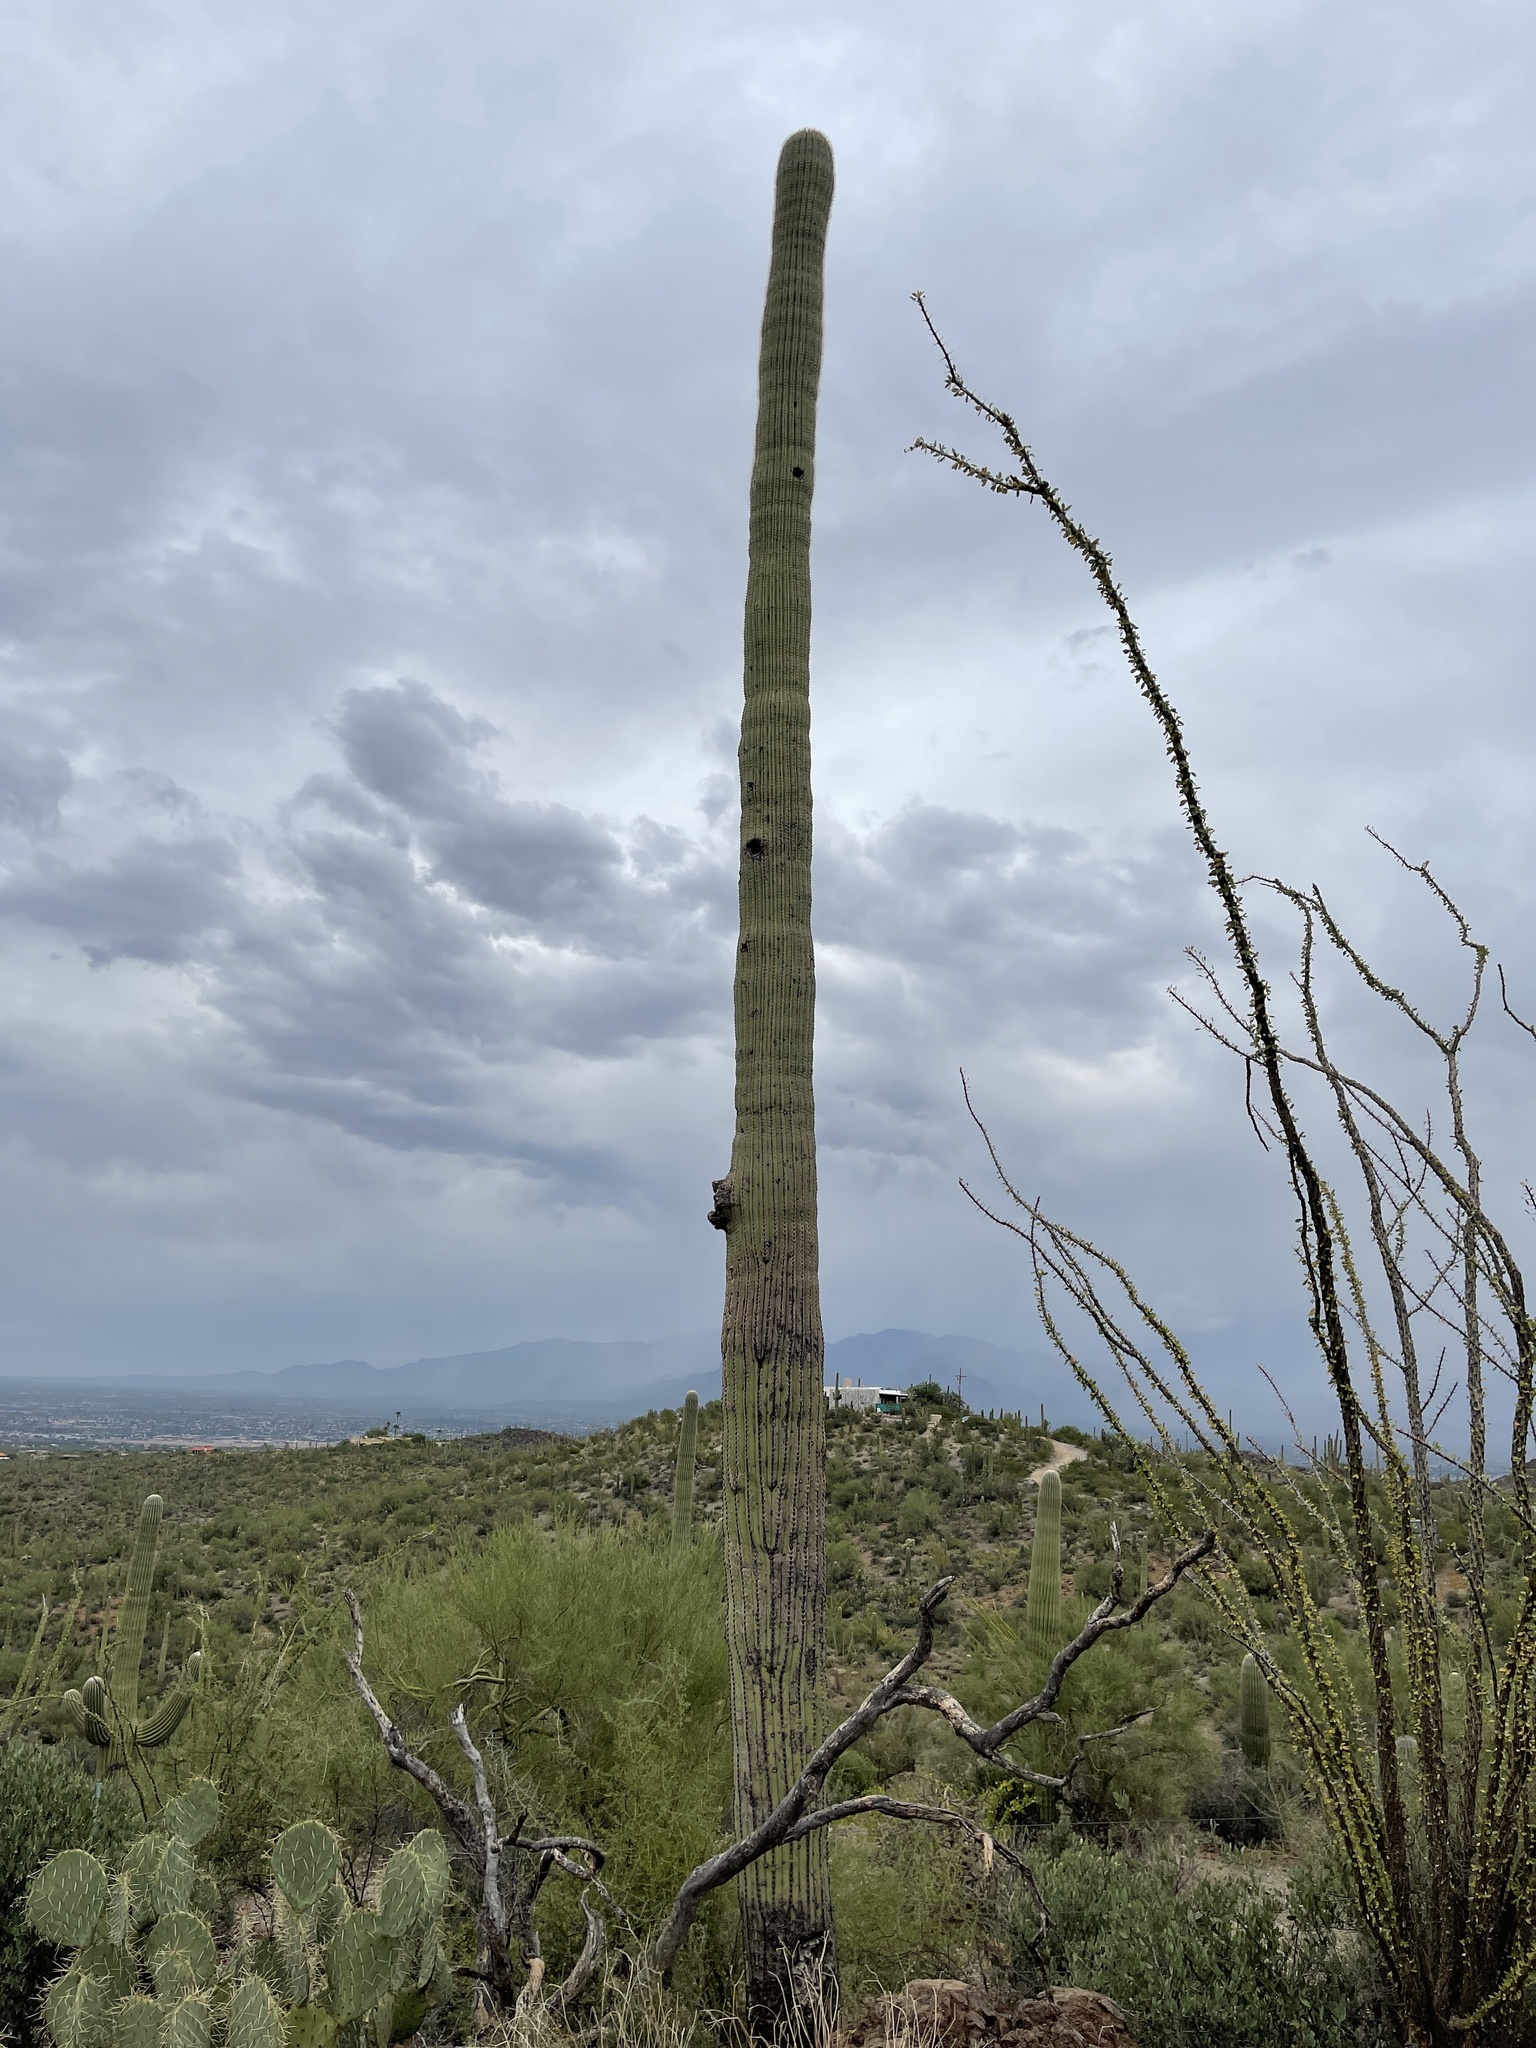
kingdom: Plantae
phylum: Tracheophyta
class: Magnoliopsida
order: Caryophyllales
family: Cactaceae
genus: Carnegiea
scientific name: Carnegiea gigantea
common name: Saguaro
